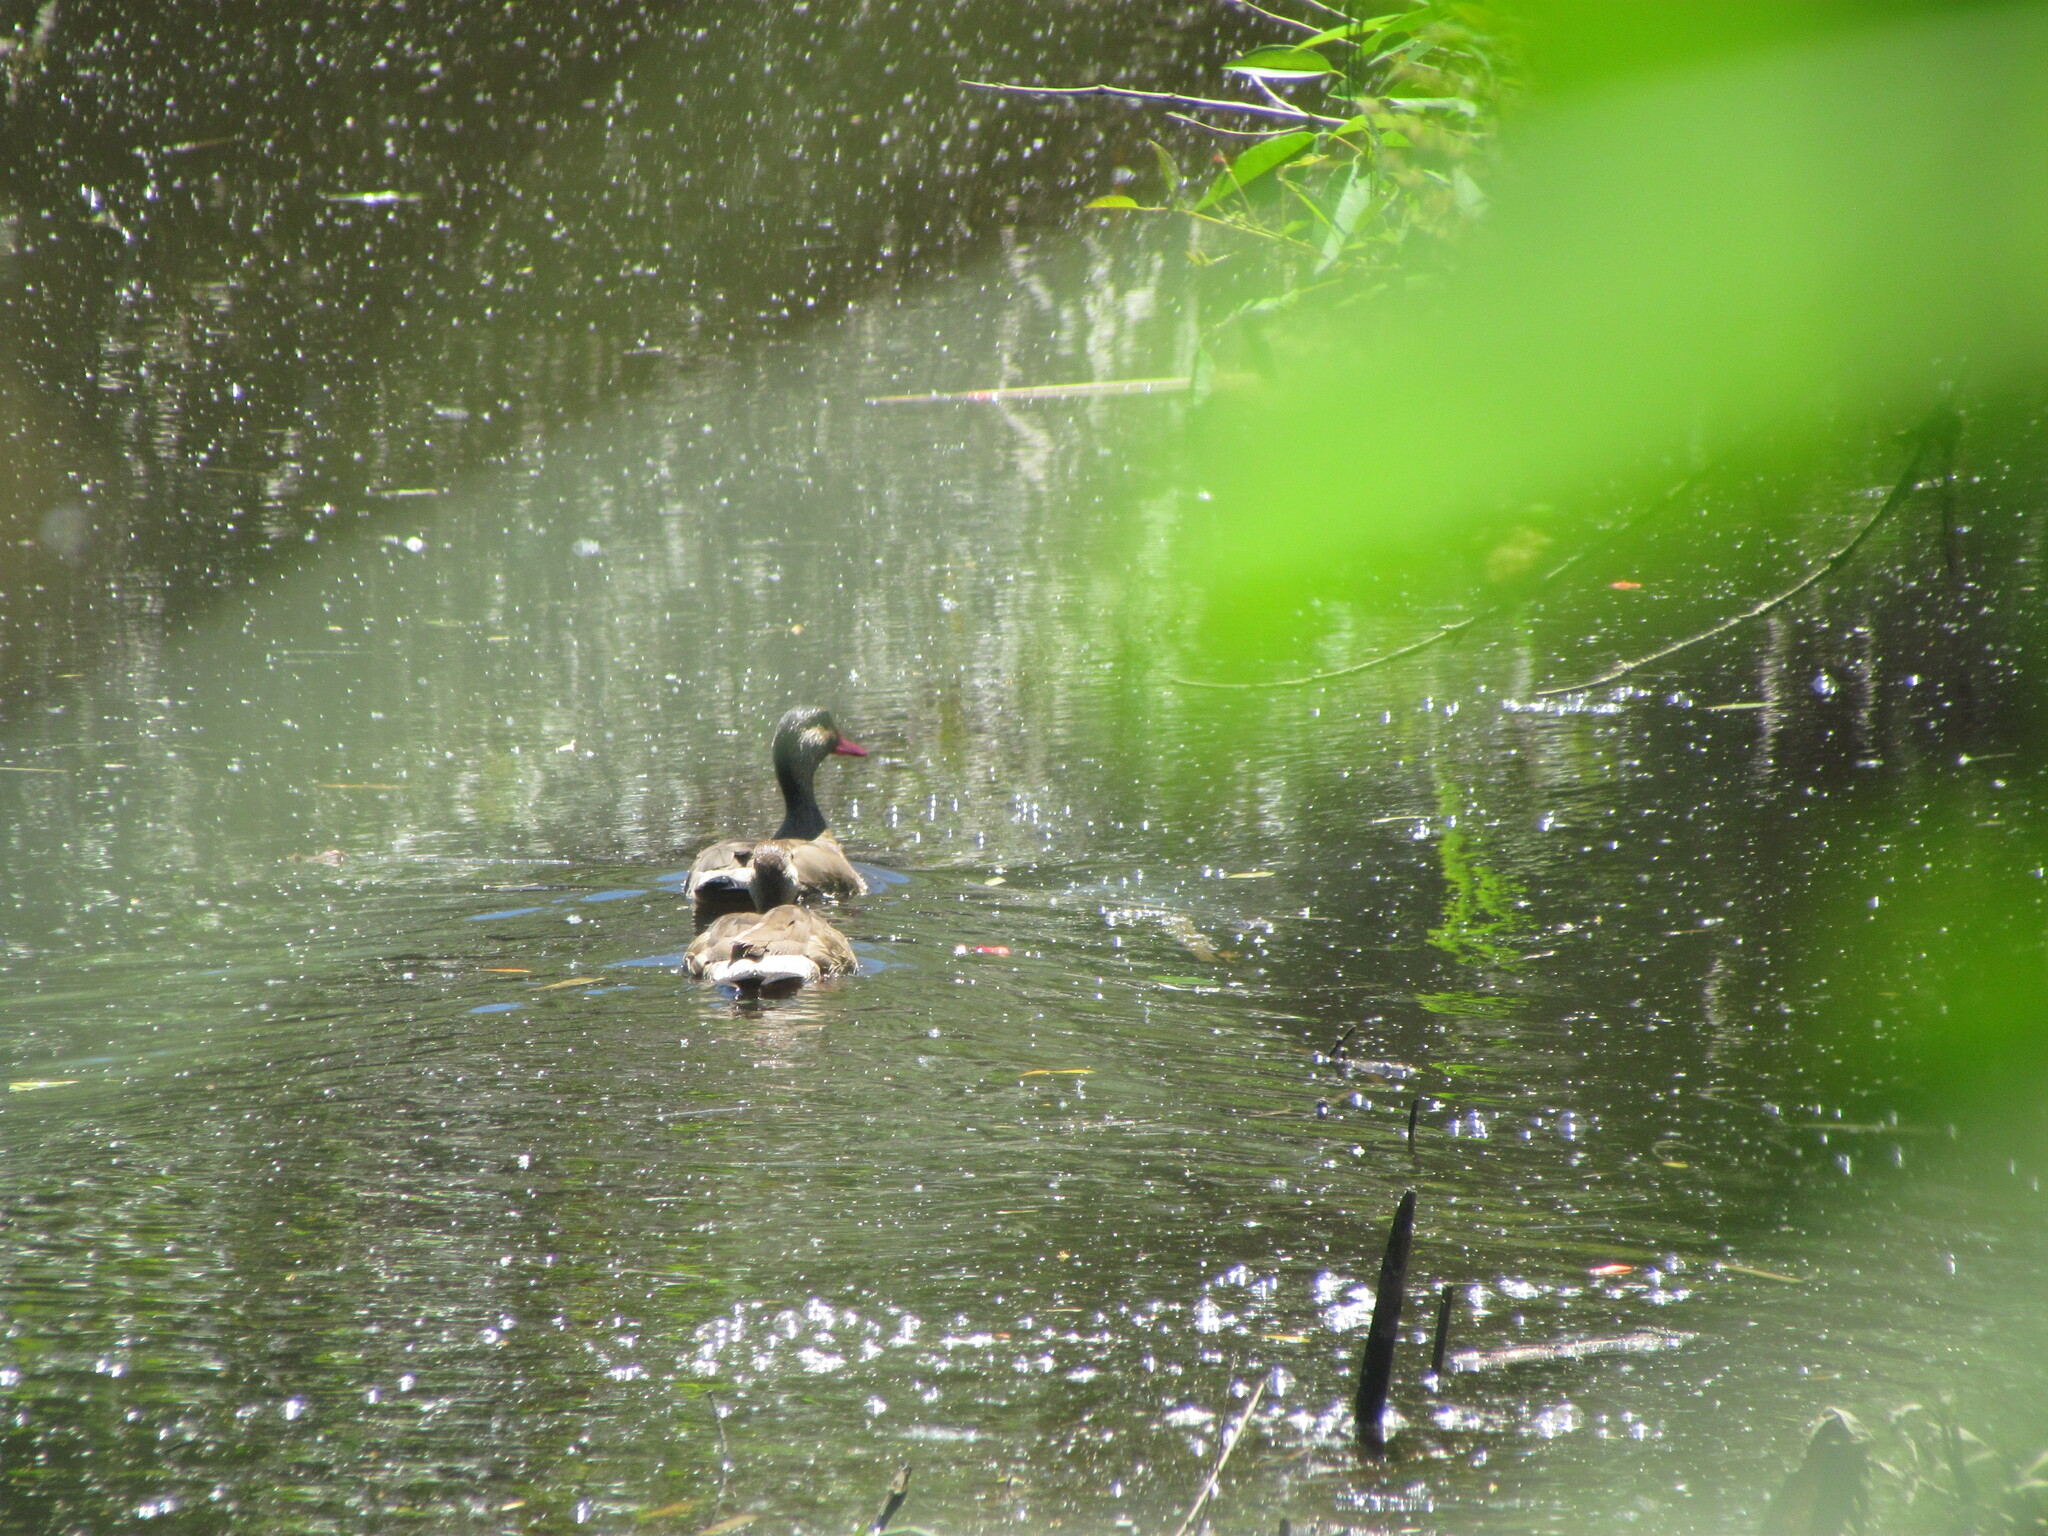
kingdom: Animalia
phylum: Chordata
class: Aves
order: Anseriformes
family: Anatidae
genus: Amazonetta
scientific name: Amazonetta brasiliensis
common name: Brazilian teal
